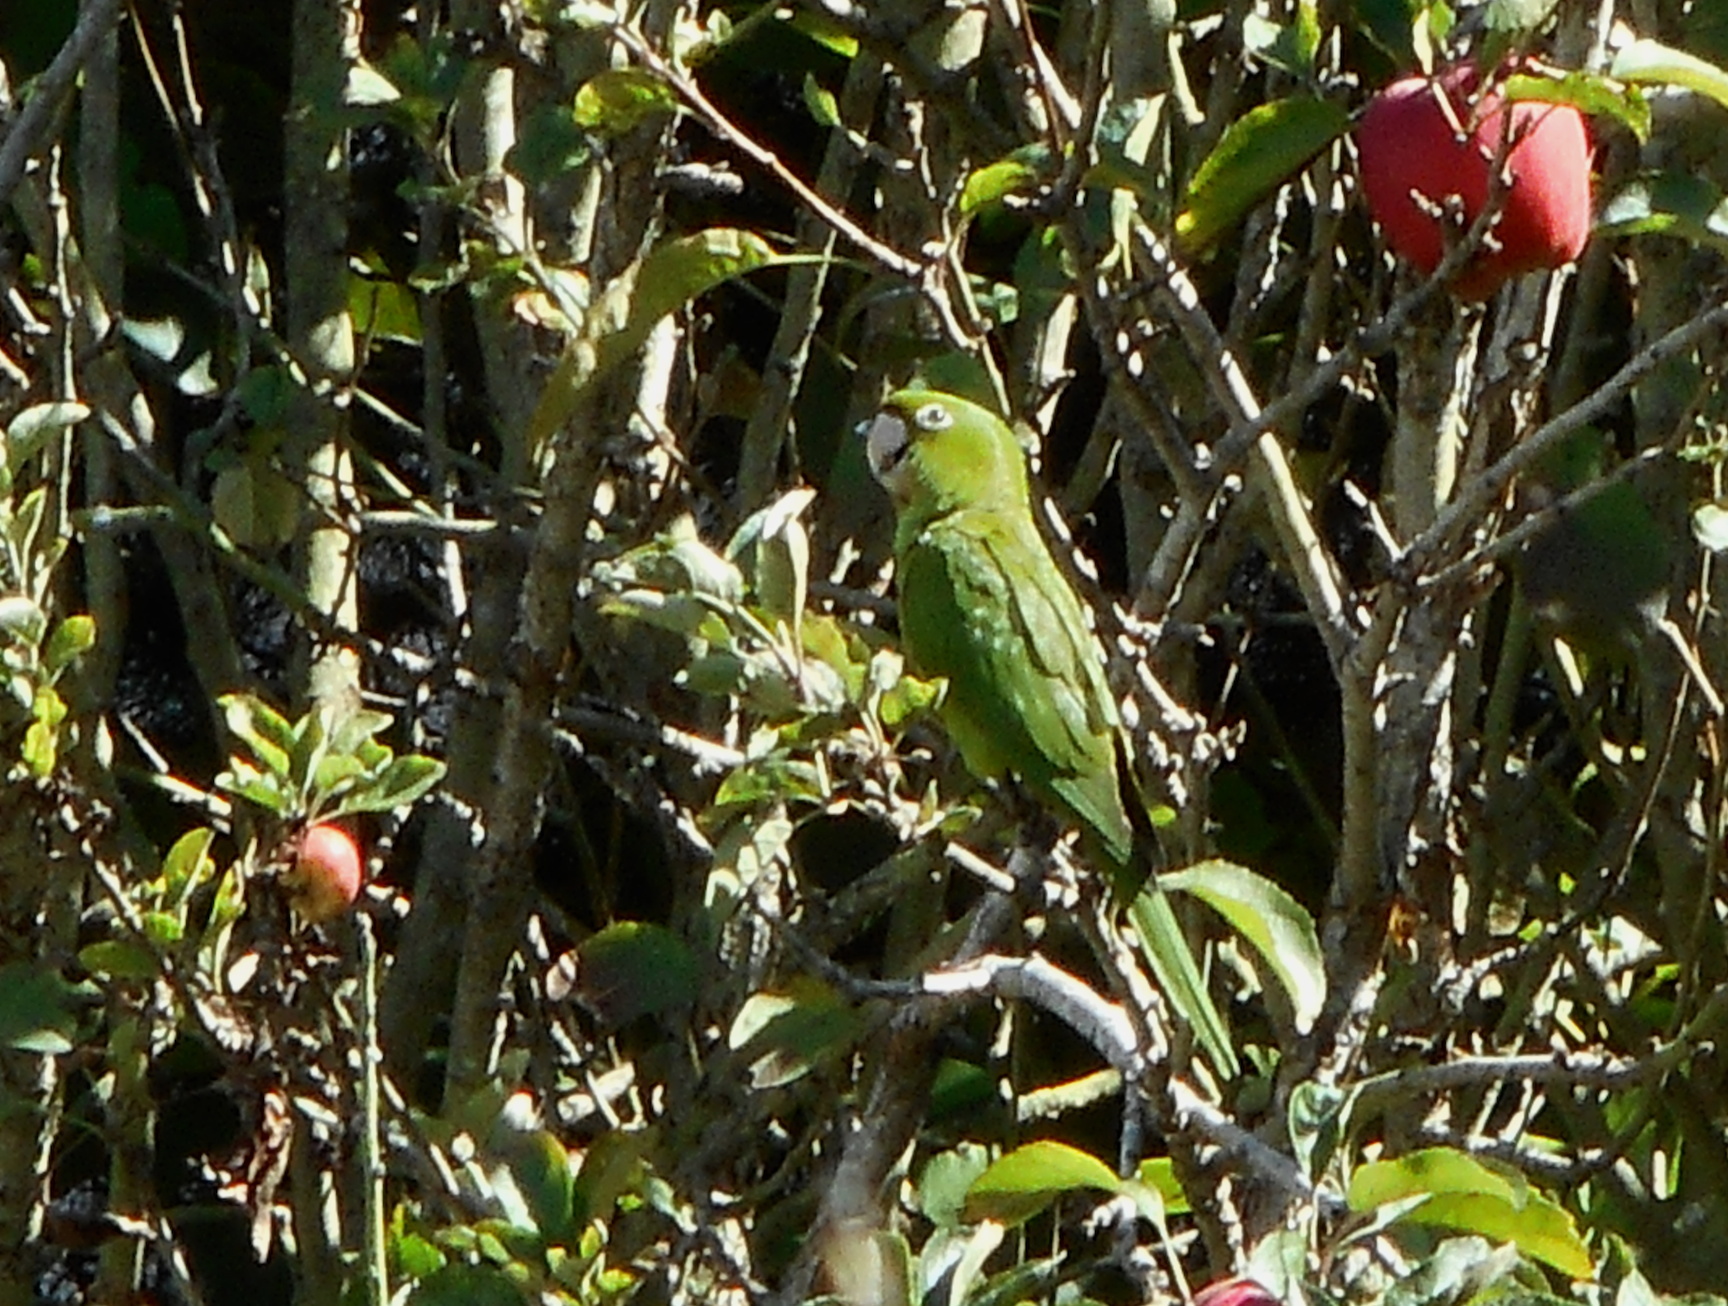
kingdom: Animalia
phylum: Chordata
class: Aves
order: Psittaciformes
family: Psittacidae
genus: Aratinga
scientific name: Aratinga erythrogenys
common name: Red-masked parakeet
